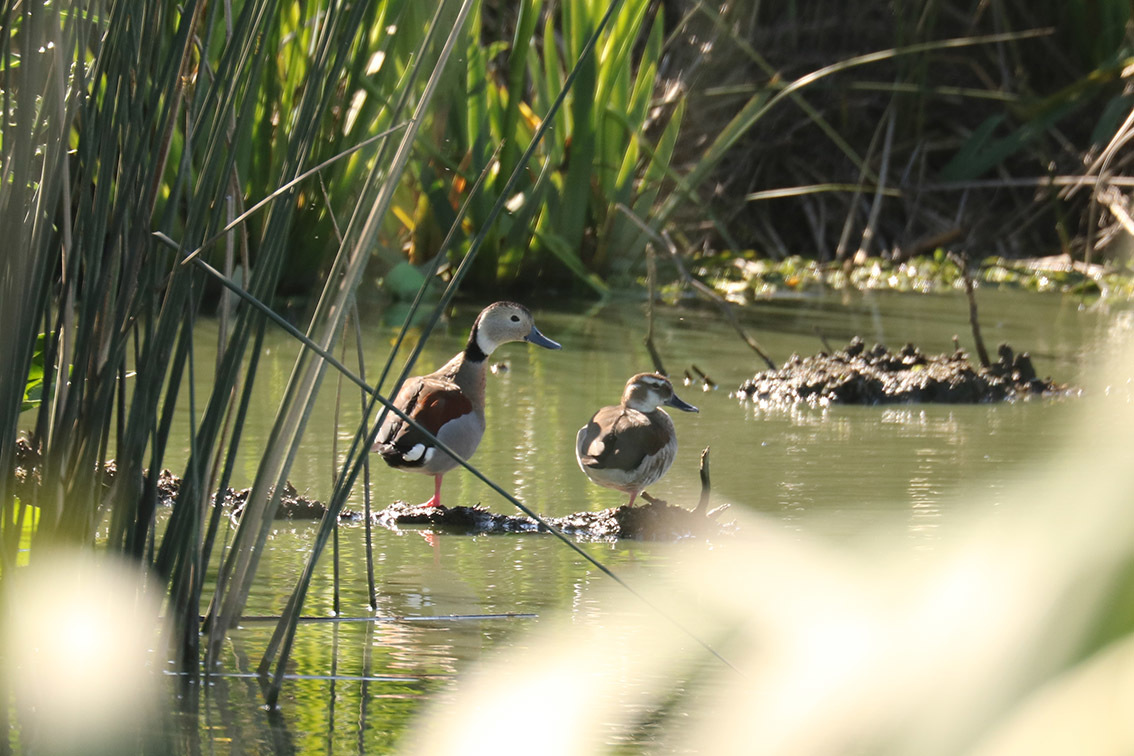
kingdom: Animalia
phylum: Chordata
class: Aves
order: Anseriformes
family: Anatidae
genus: Callonetta
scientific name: Callonetta leucophrys
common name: Ringed teal
